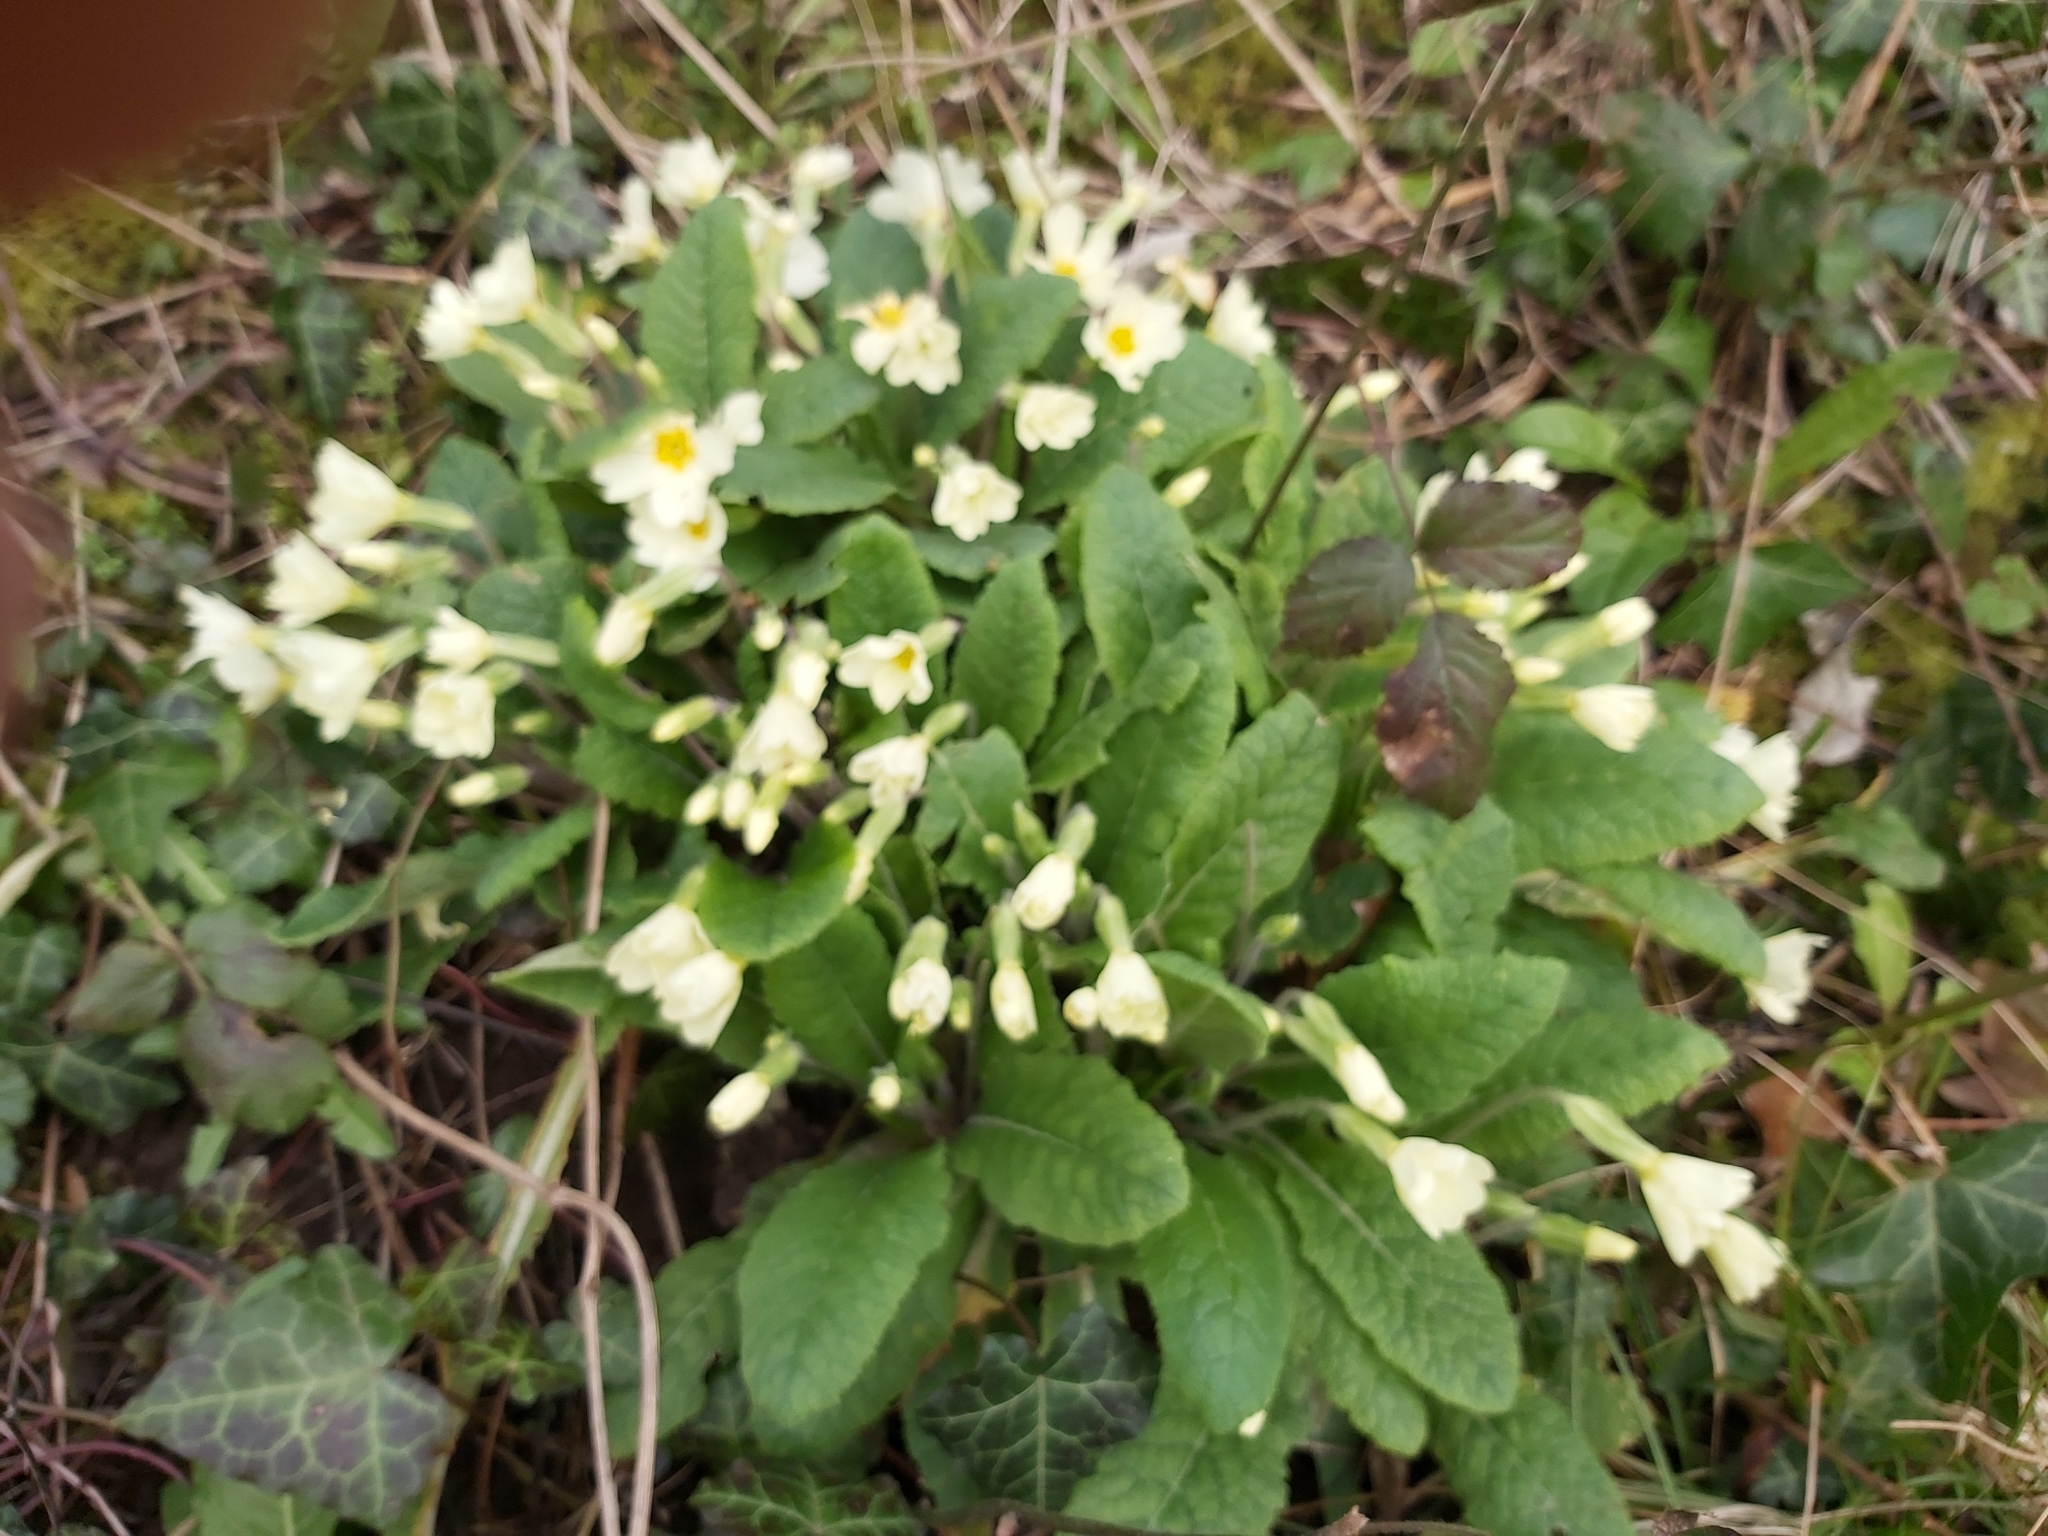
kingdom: Plantae
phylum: Tracheophyta
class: Magnoliopsida
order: Ericales
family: Primulaceae
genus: Primula
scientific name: Primula vulgaris
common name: Primrose
